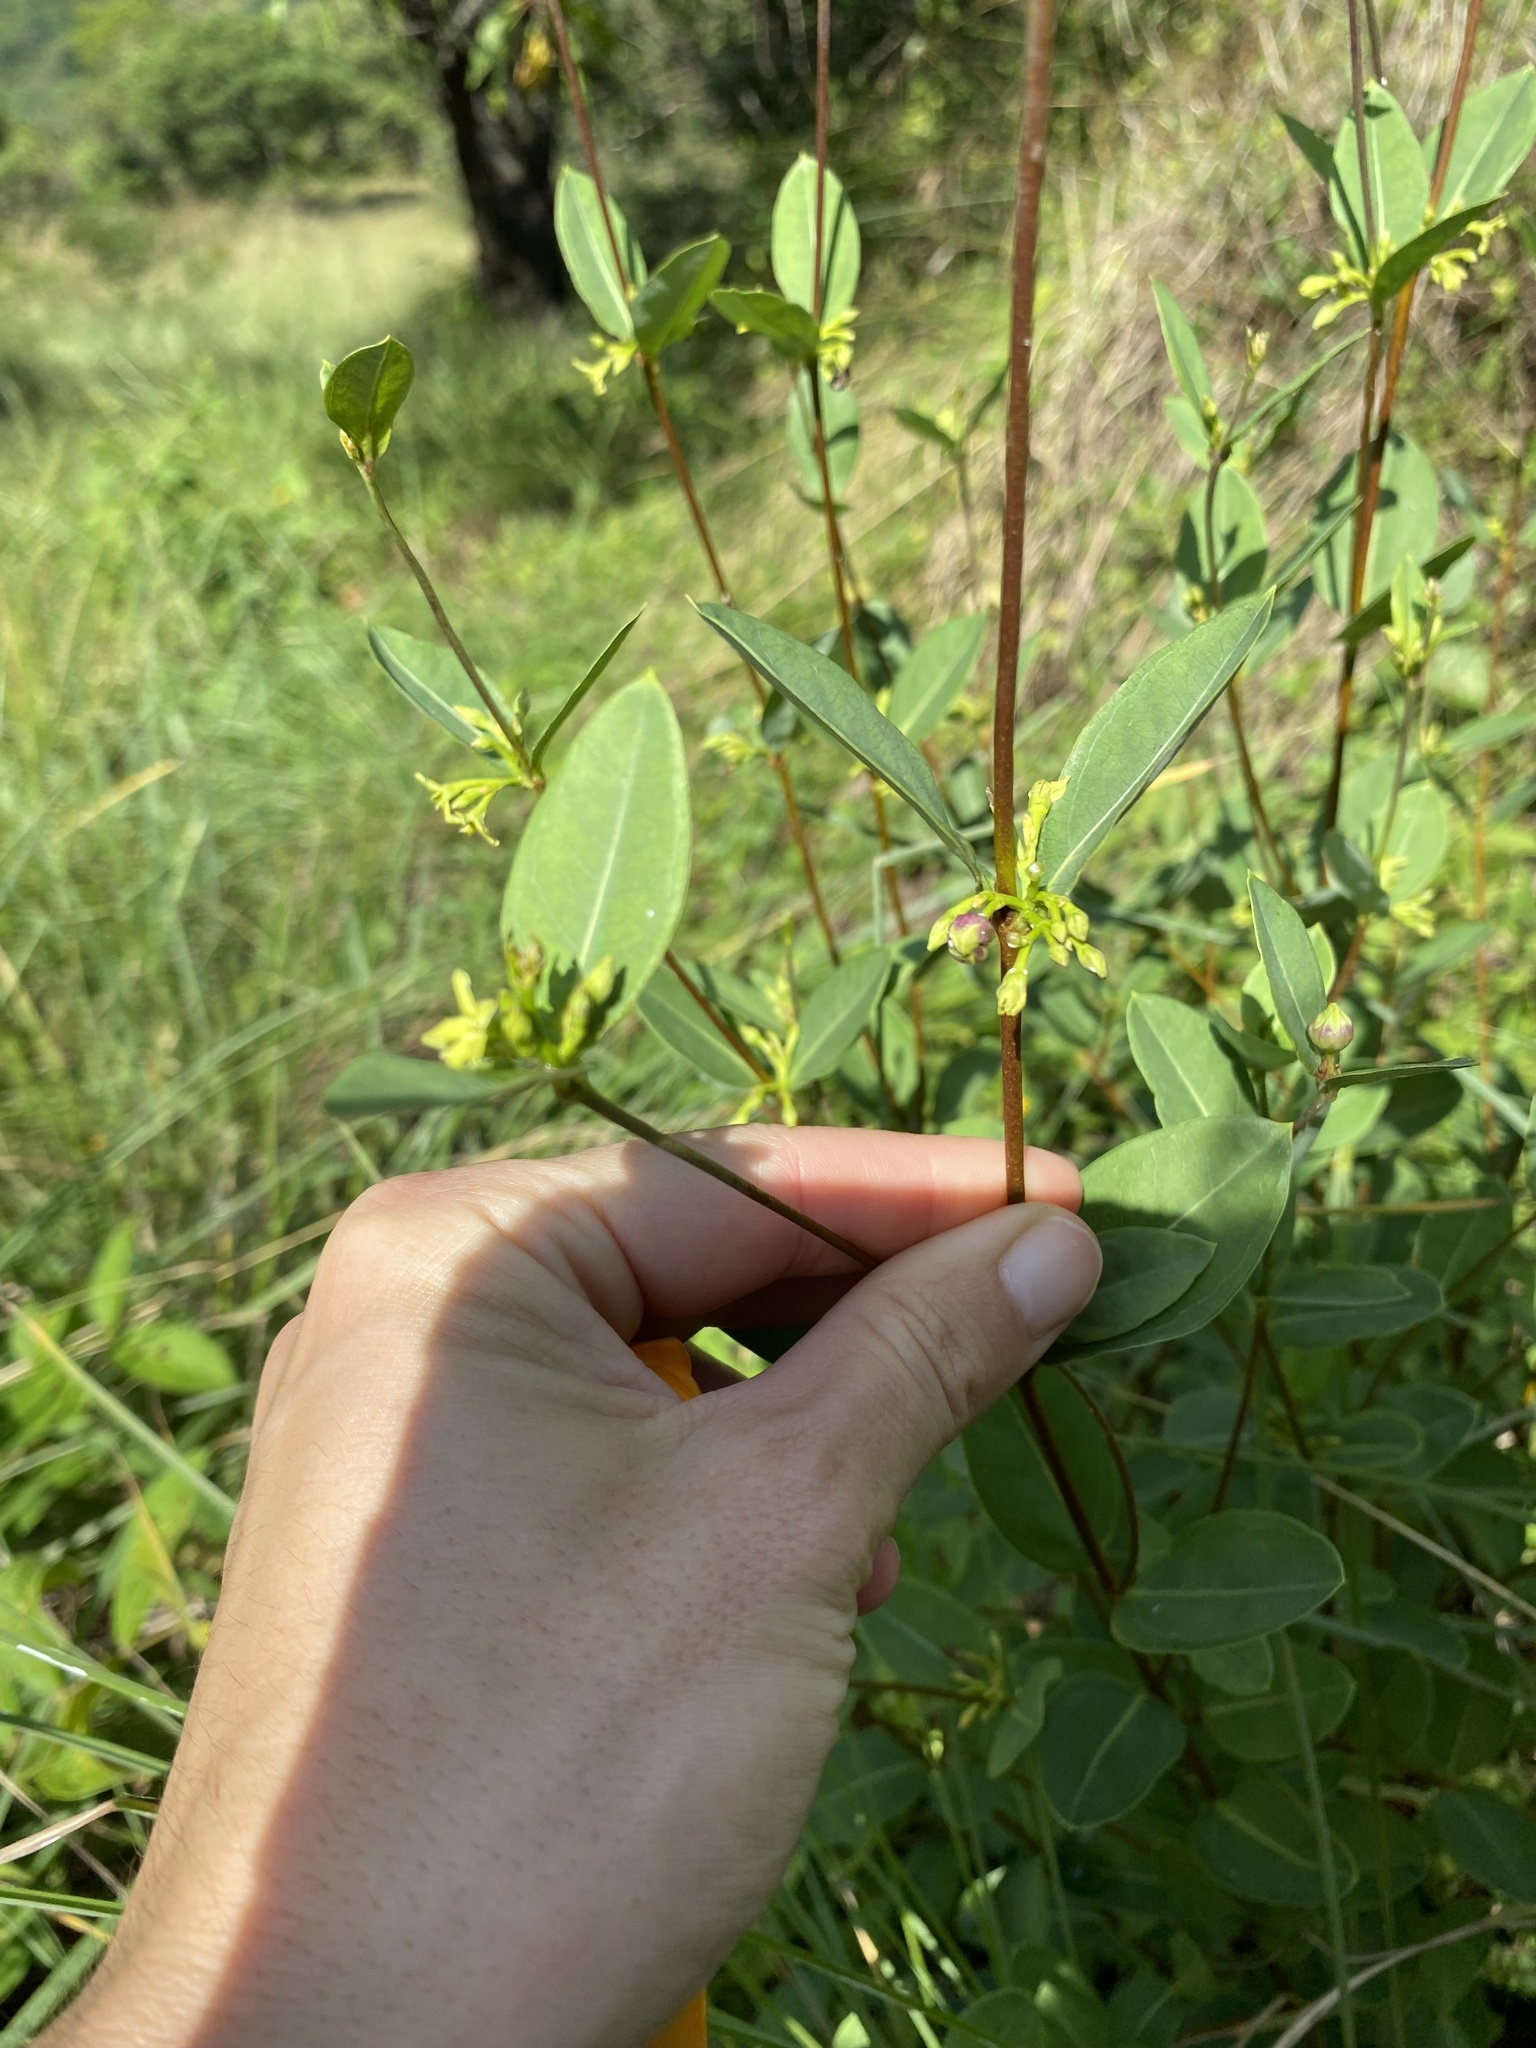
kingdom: Plantae
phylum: Tracheophyta
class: Magnoliopsida
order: Gentianales
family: Apocynaceae
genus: Cryptolepis
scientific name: Cryptolepis oblongifolia
